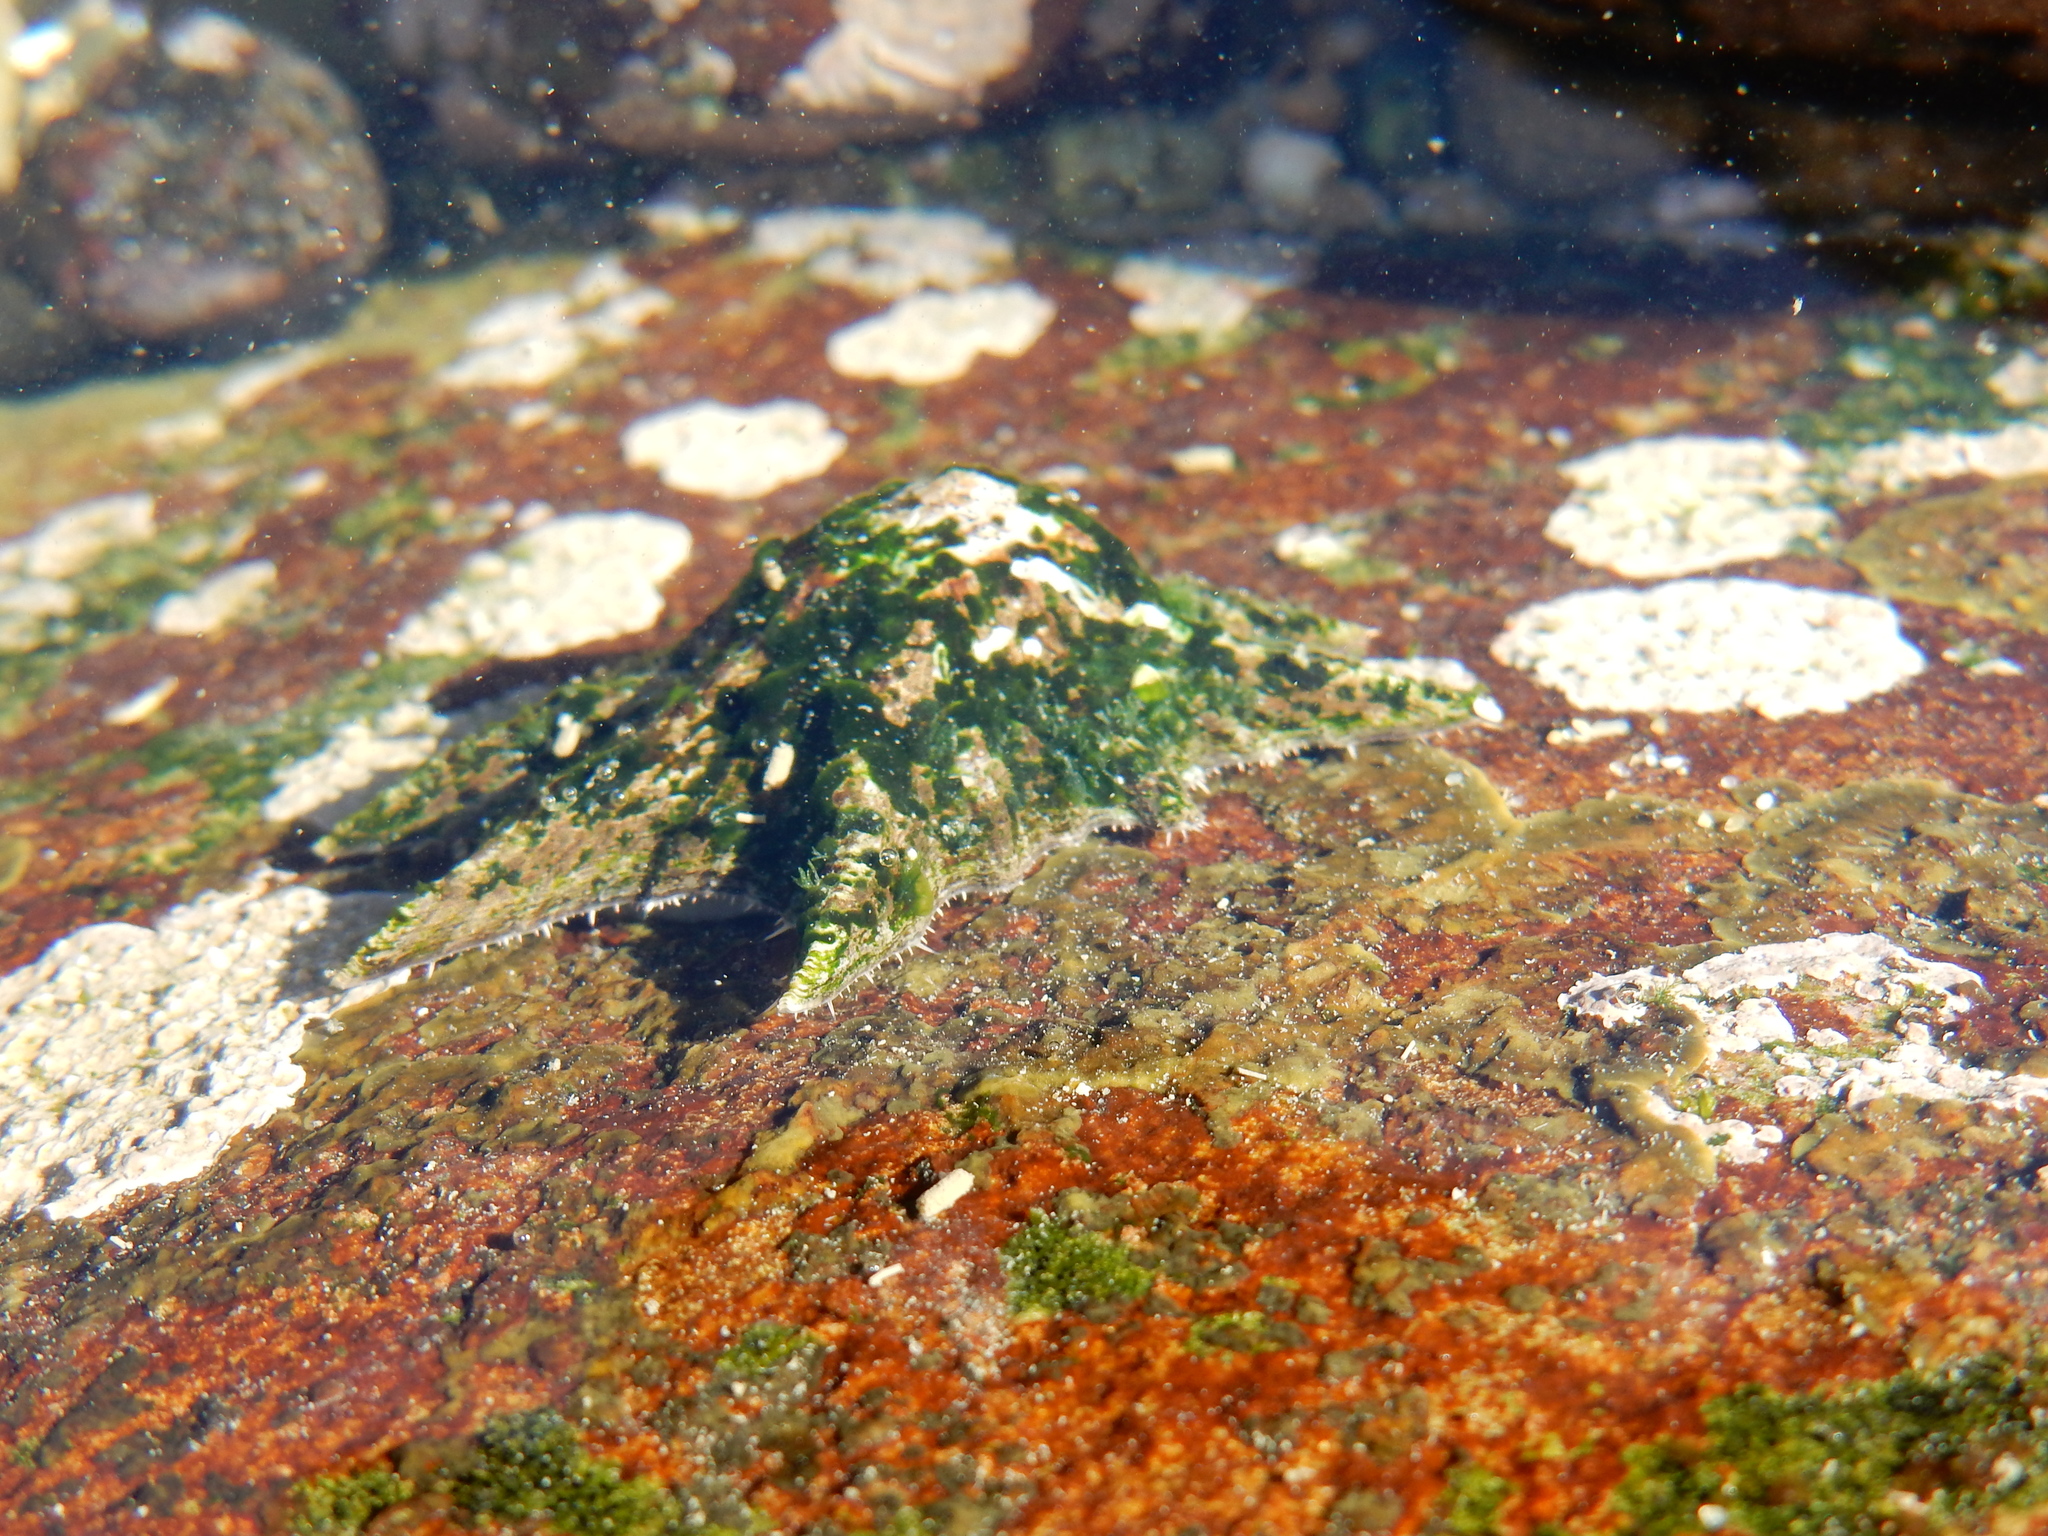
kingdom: Animalia
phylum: Mollusca
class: Gastropoda
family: Patellidae
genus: Scutellastra
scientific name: Scutellastra longicosta
